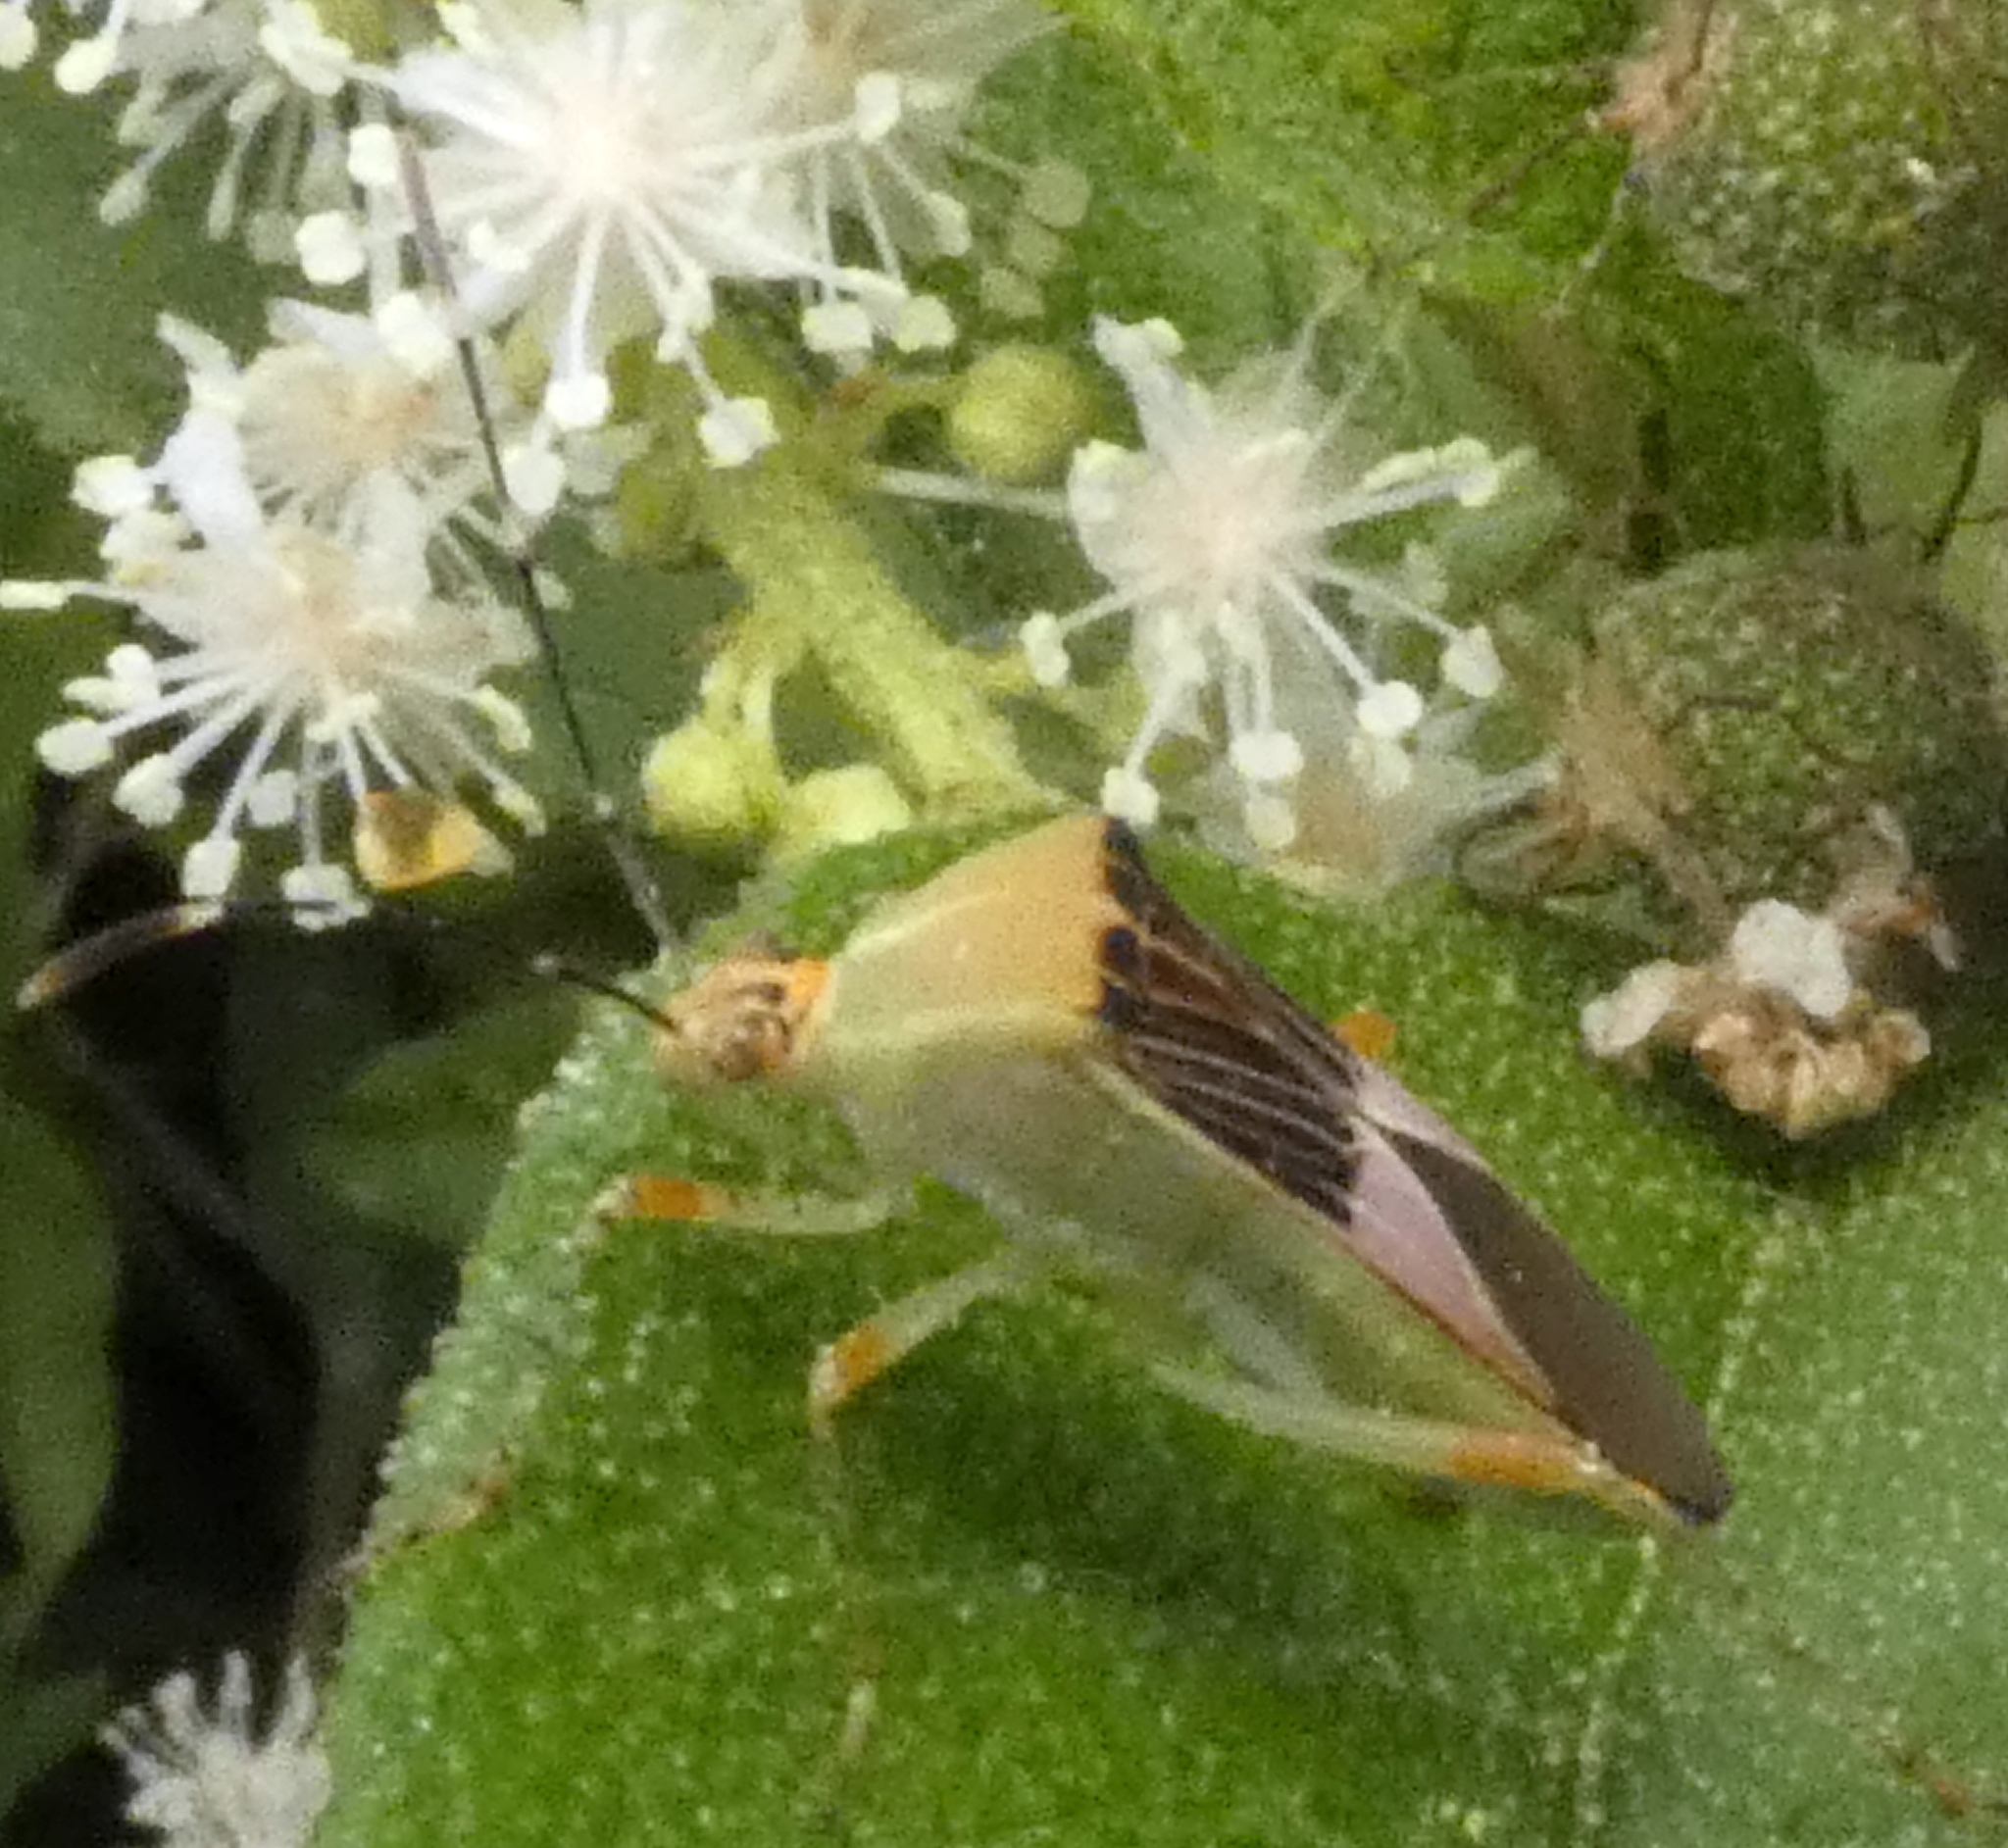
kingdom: Animalia
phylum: Arthropoda
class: Insecta
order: Hemiptera
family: Coreidae
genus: Hypselonotus
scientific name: Hypselonotus fulvus
